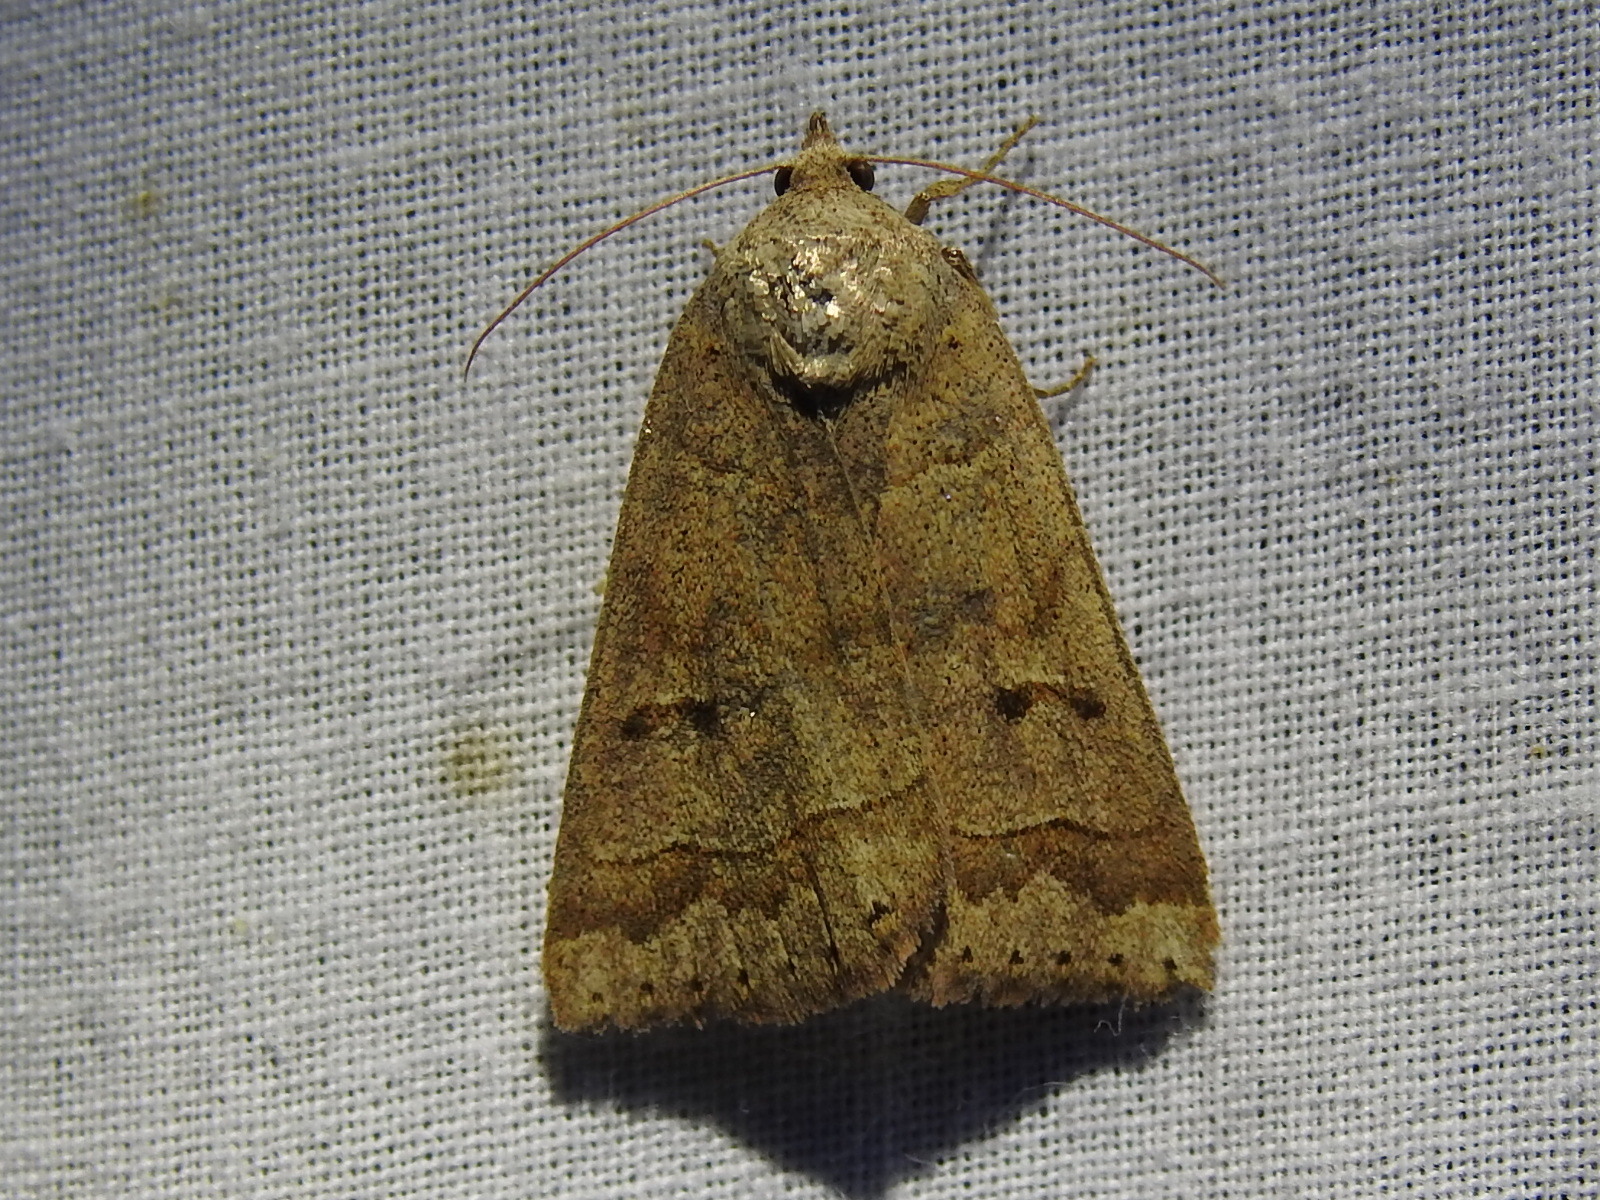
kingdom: Animalia
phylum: Arthropoda
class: Insecta
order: Lepidoptera
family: Erebidae
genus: Phoberia
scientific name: Phoberia atomaris
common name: Common oak moth
